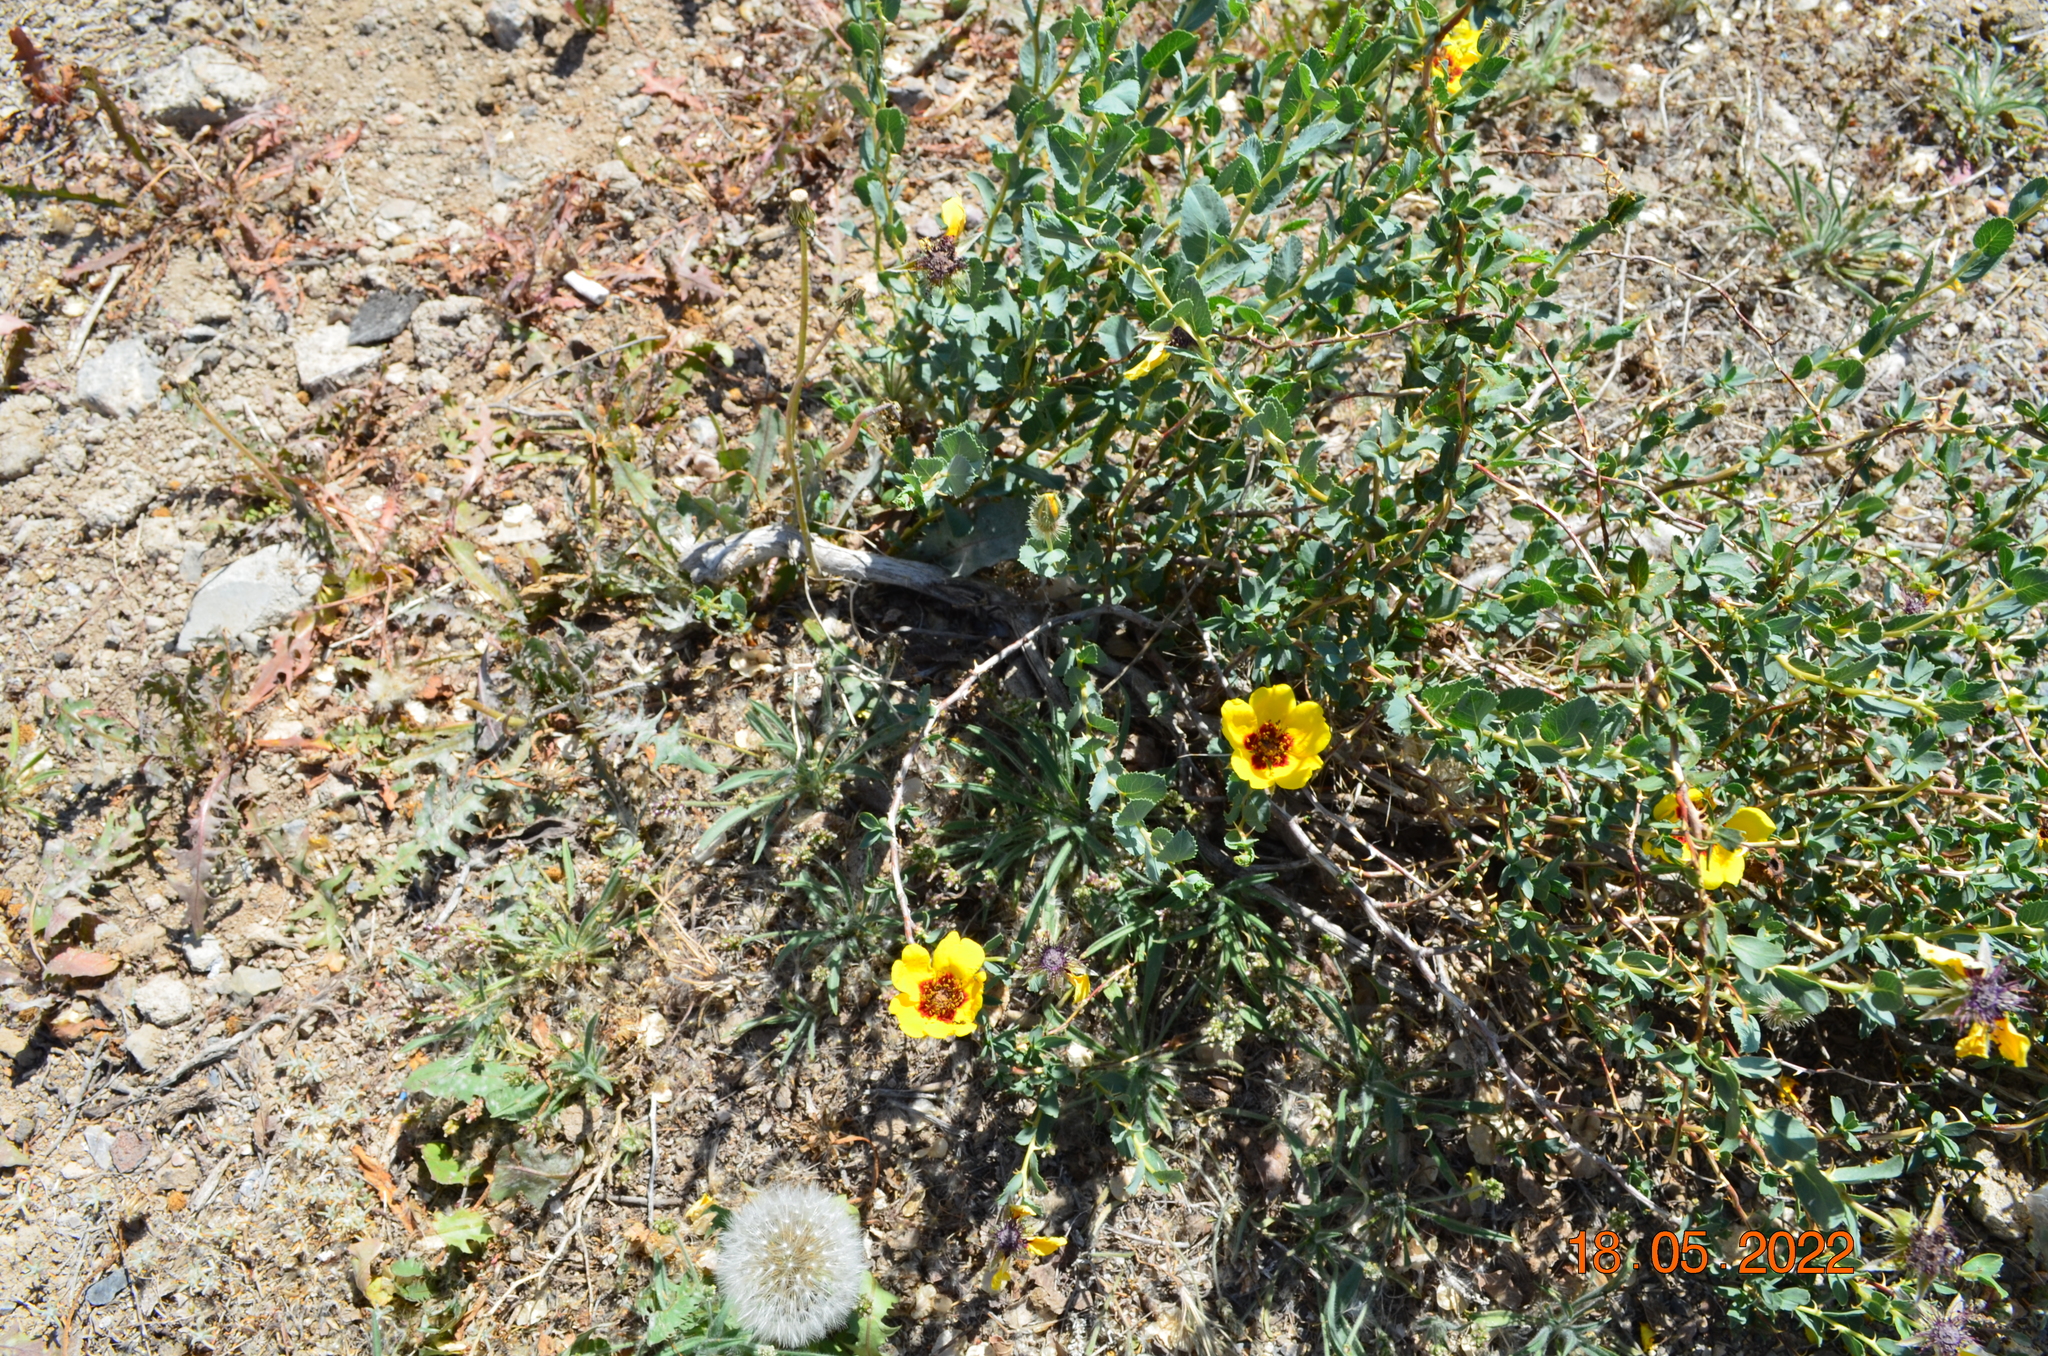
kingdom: Plantae
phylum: Tracheophyta
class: Magnoliopsida
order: Rosales
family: Rosaceae
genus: Rosa
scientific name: Rosa persica
